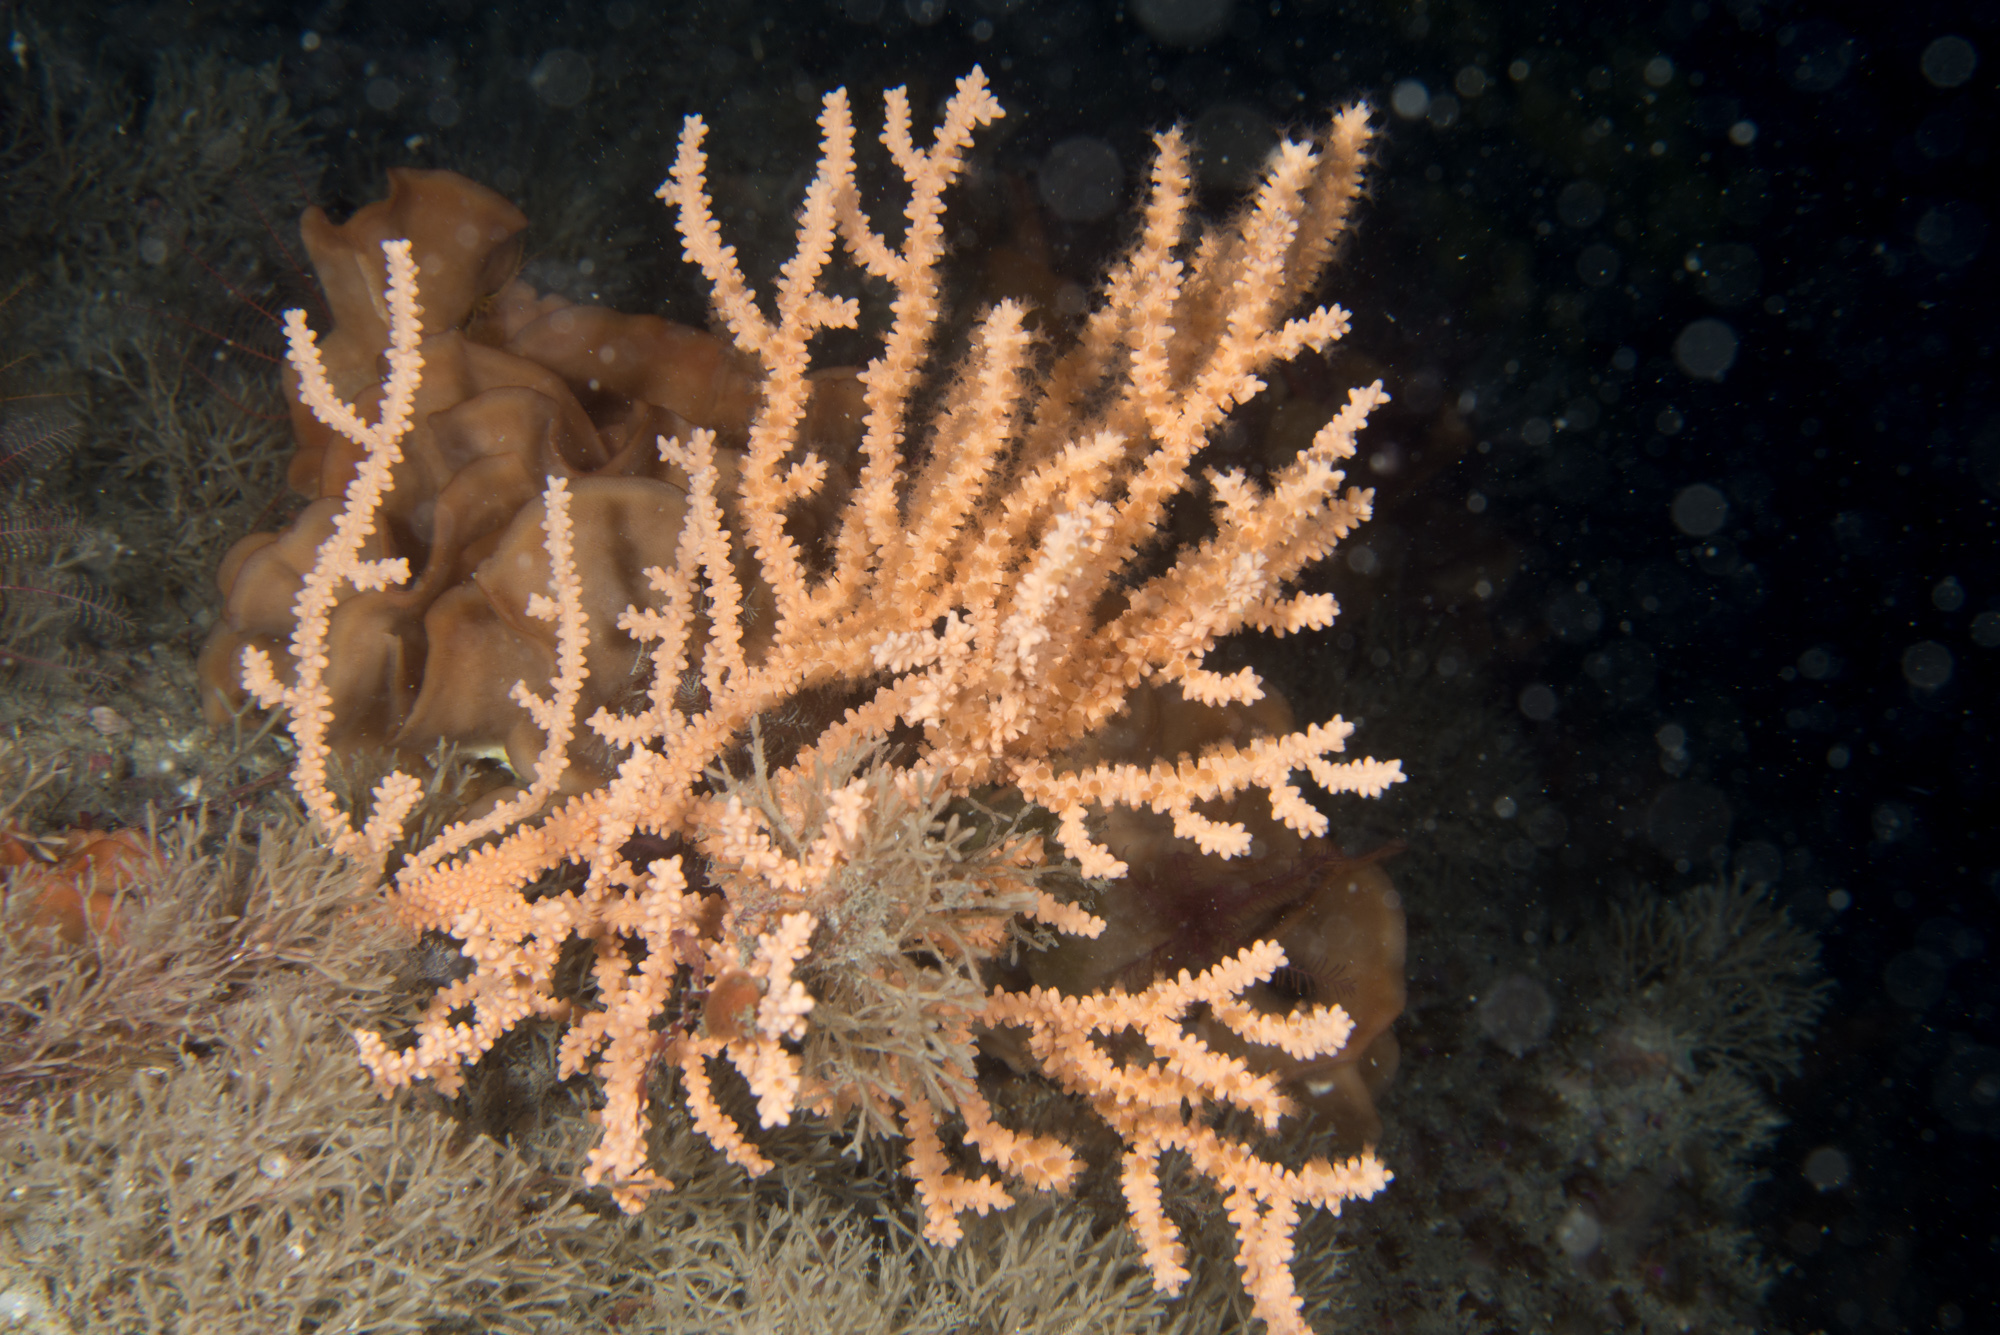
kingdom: Animalia
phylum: Cnidaria
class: Anthozoa
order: Malacalcyonacea
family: Eunicellidae
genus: Eunicella
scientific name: Eunicella verrucosa
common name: Pink sea-fan
